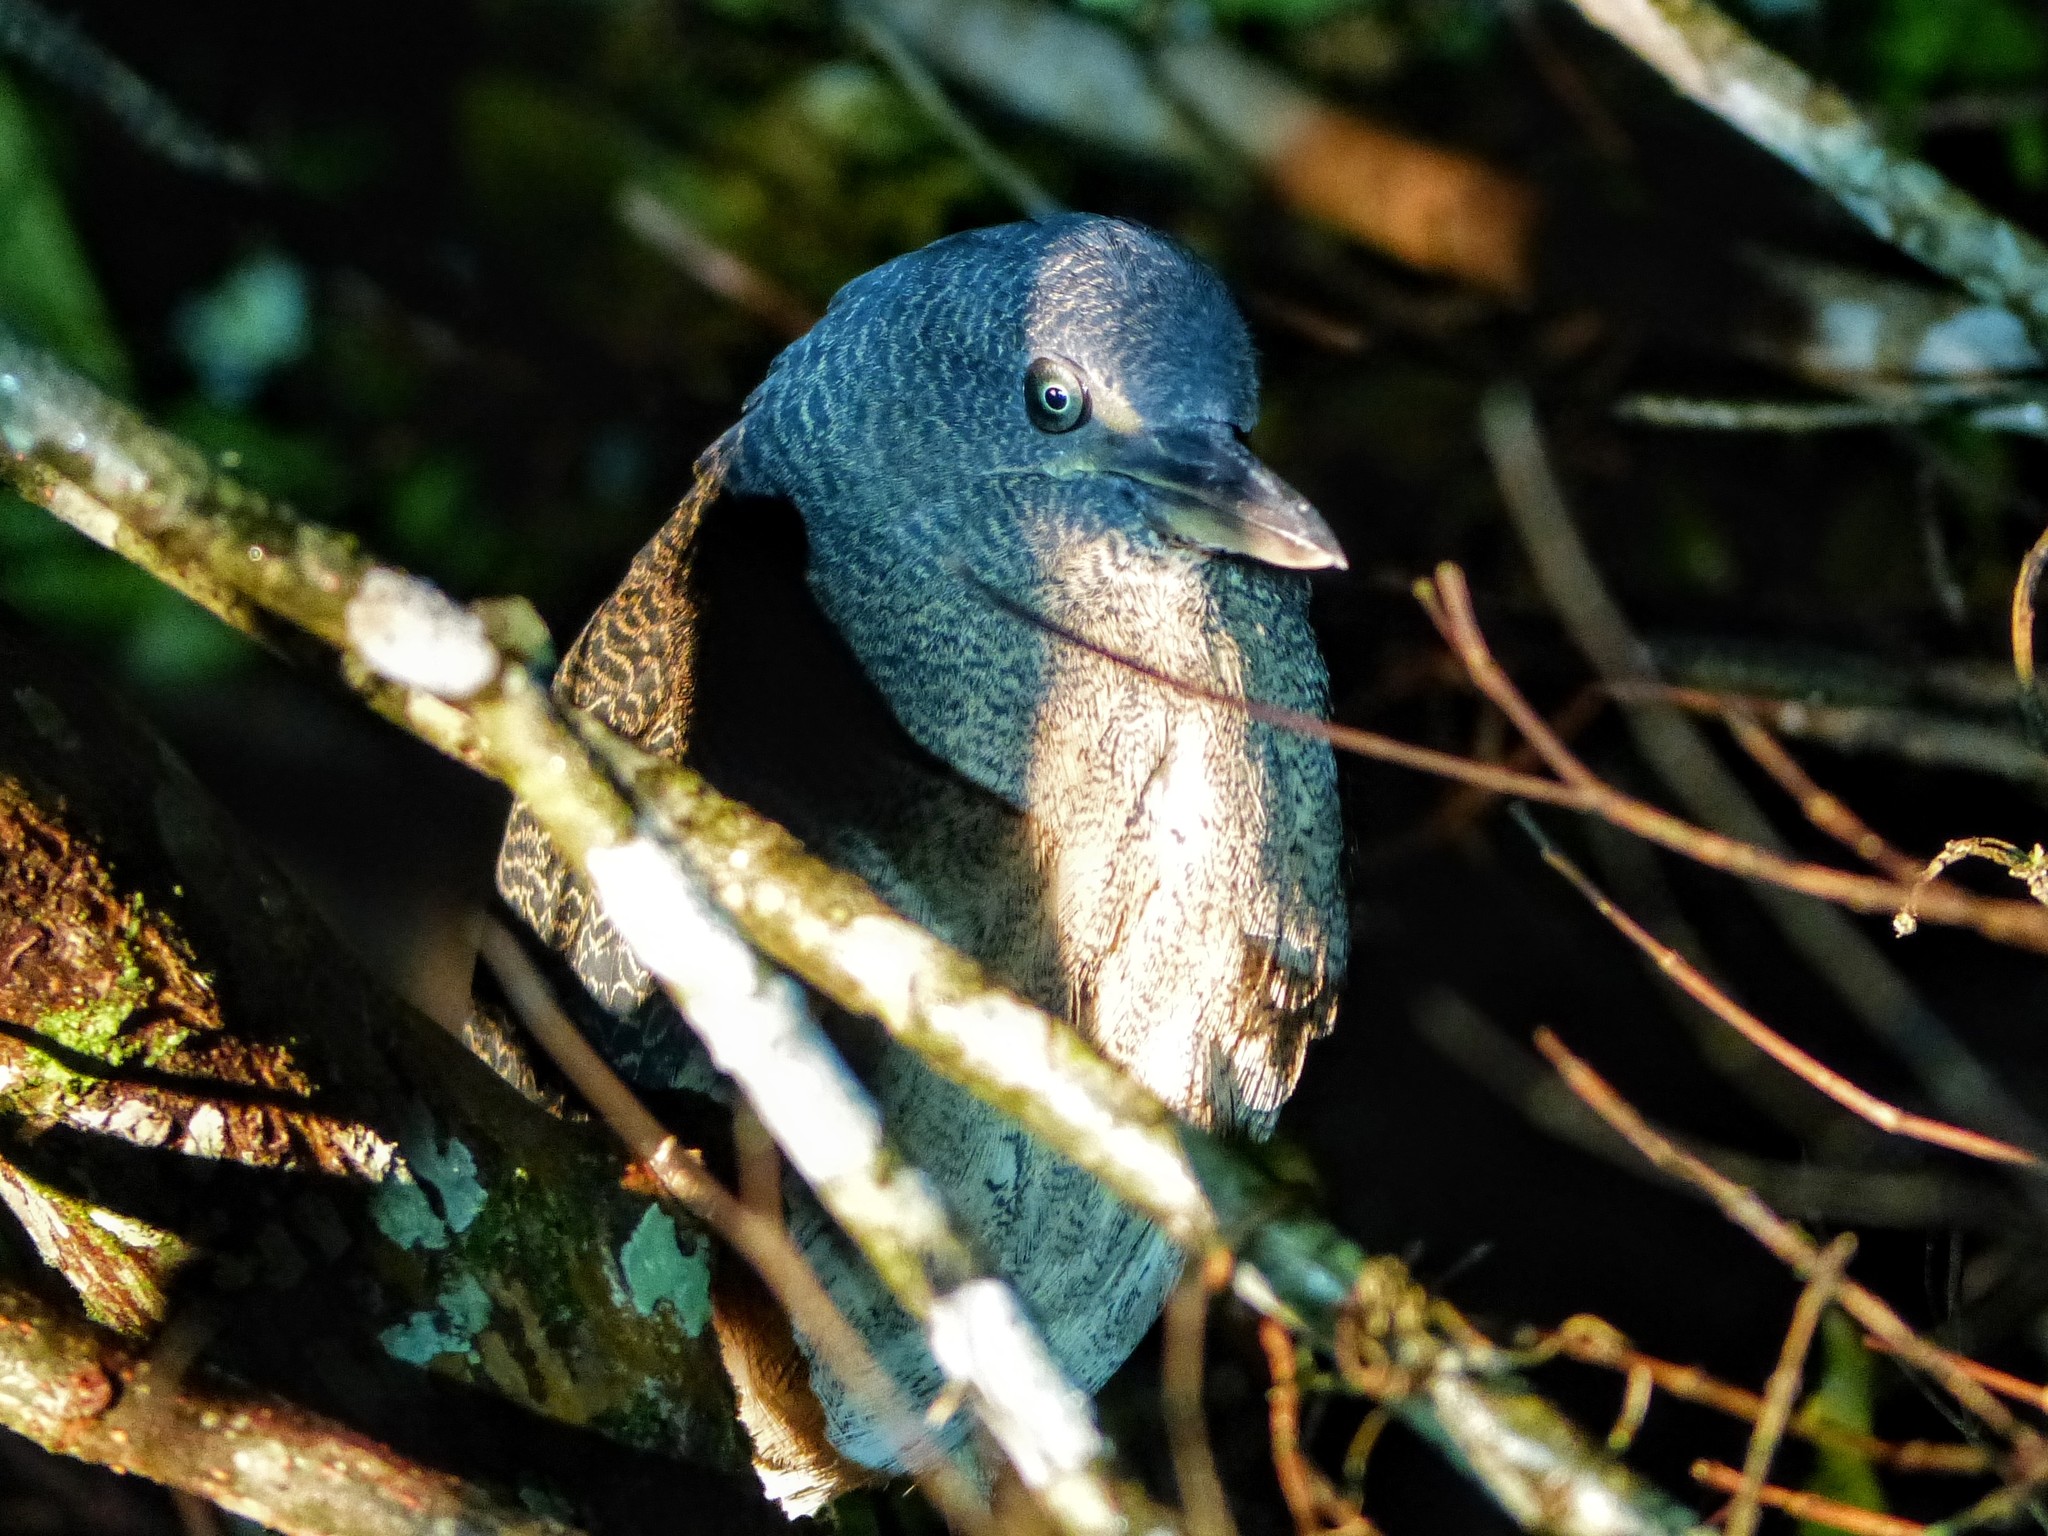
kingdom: Animalia
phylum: Chordata
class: Aves
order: Pelecaniformes
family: Ardeidae
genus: Zebrilus
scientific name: Zebrilus undulatus
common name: Zigzag heron
